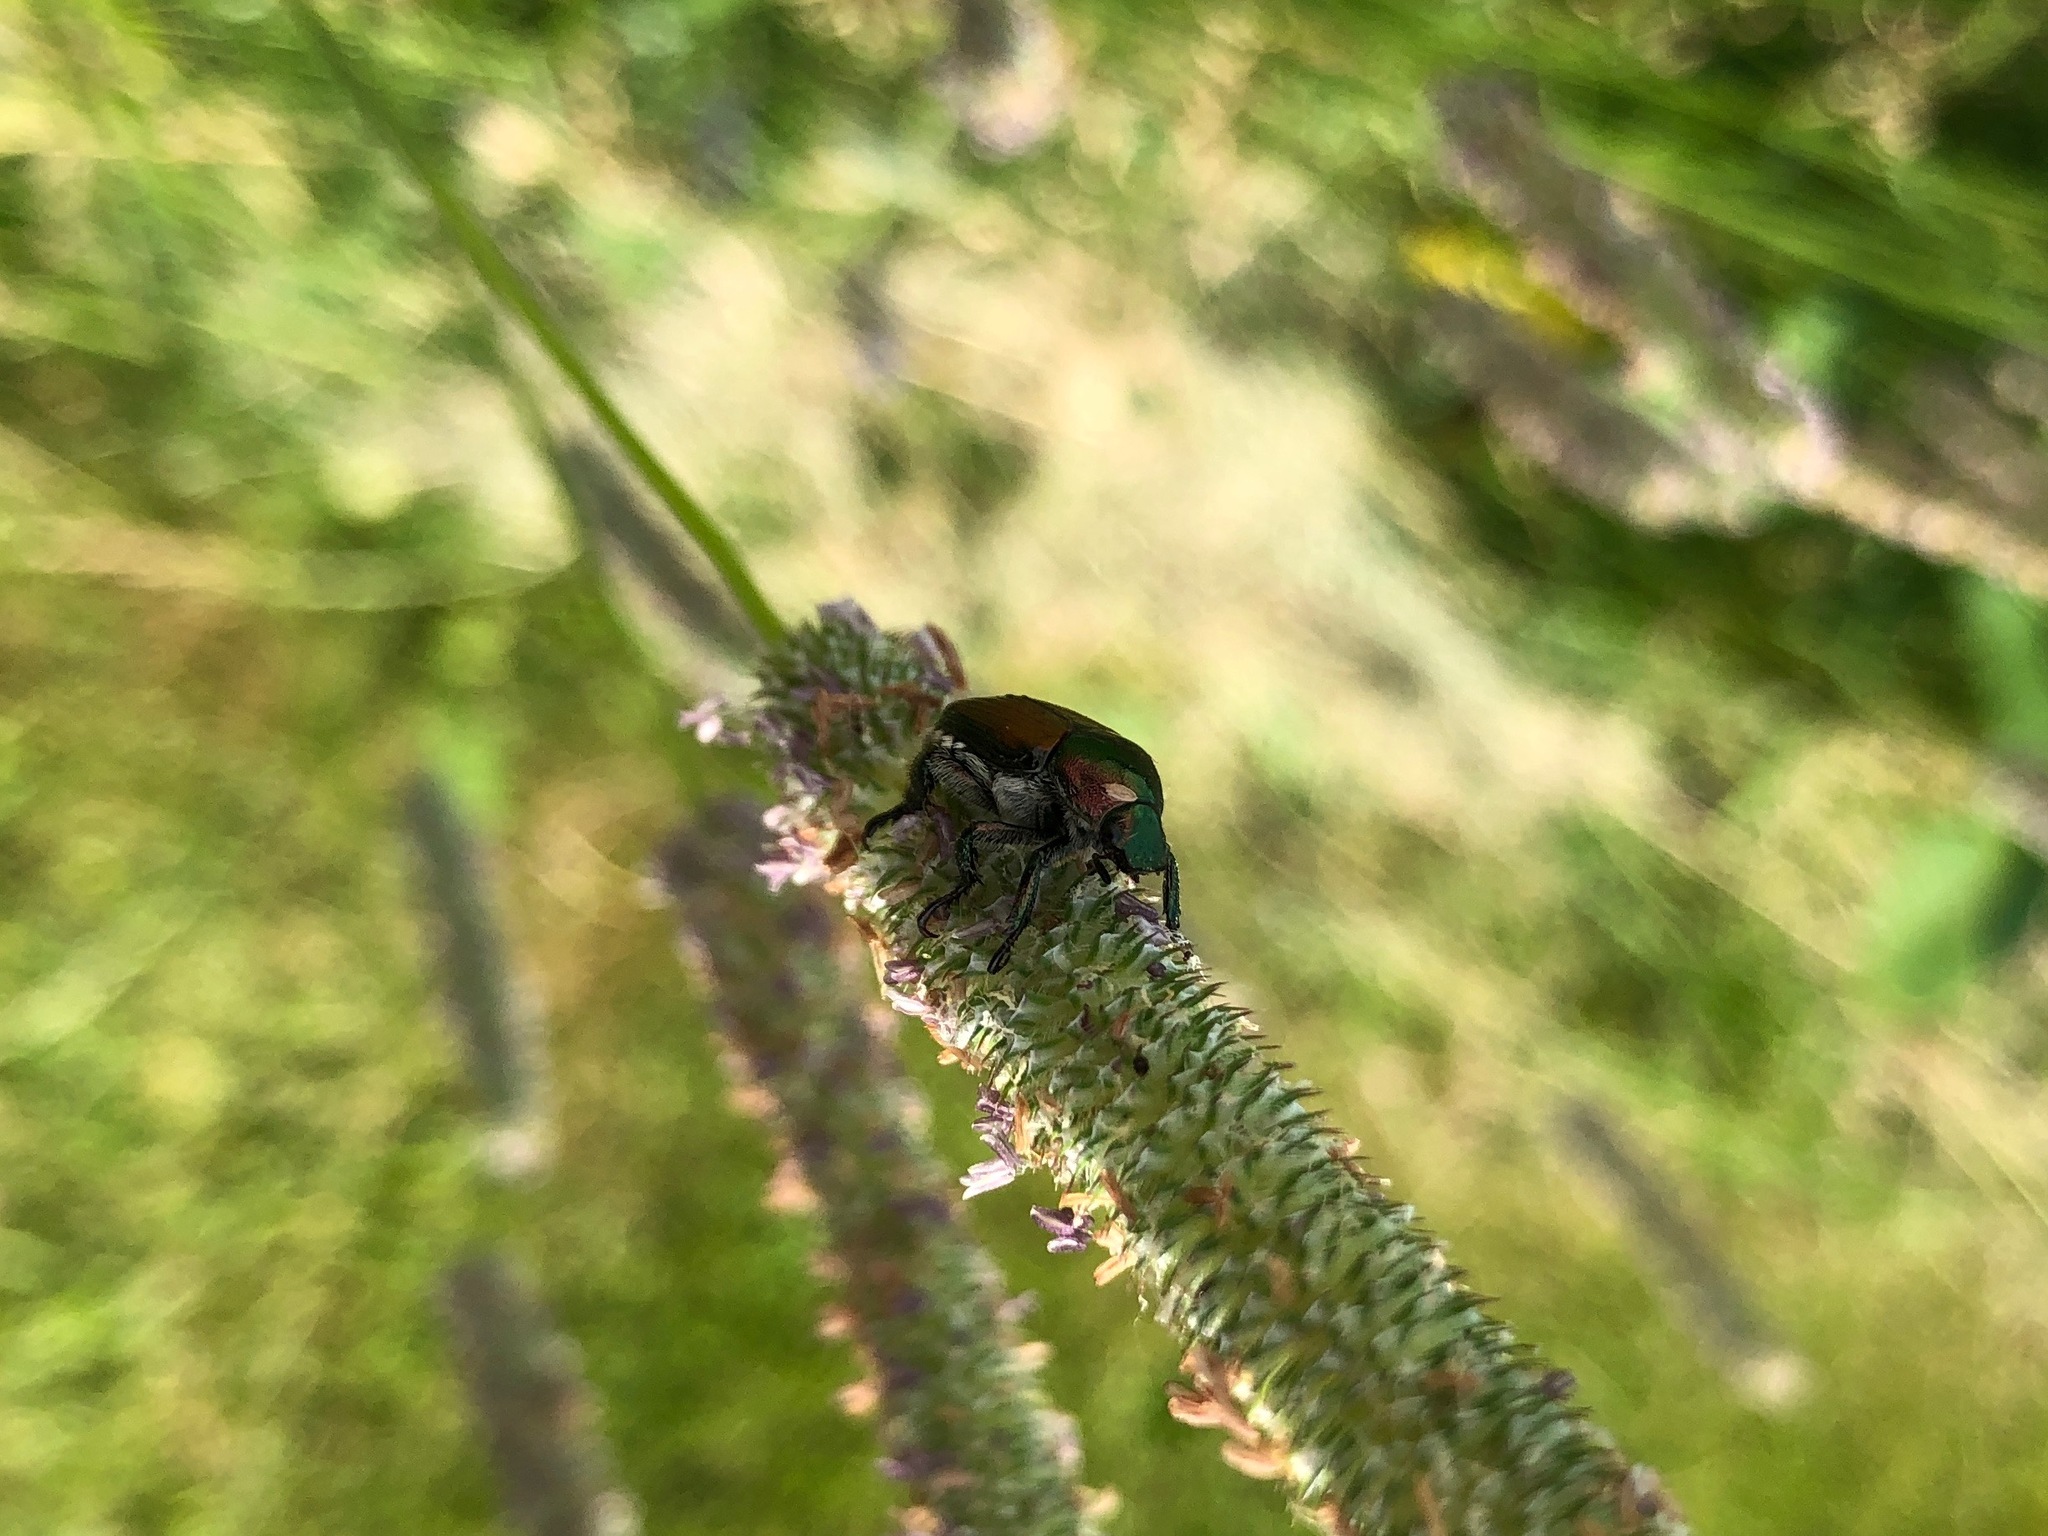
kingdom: Animalia
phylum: Arthropoda
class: Insecta
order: Coleoptera
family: Scarabaeidae
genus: Popillia
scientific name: Popillia japonica
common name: Japanese beetle
